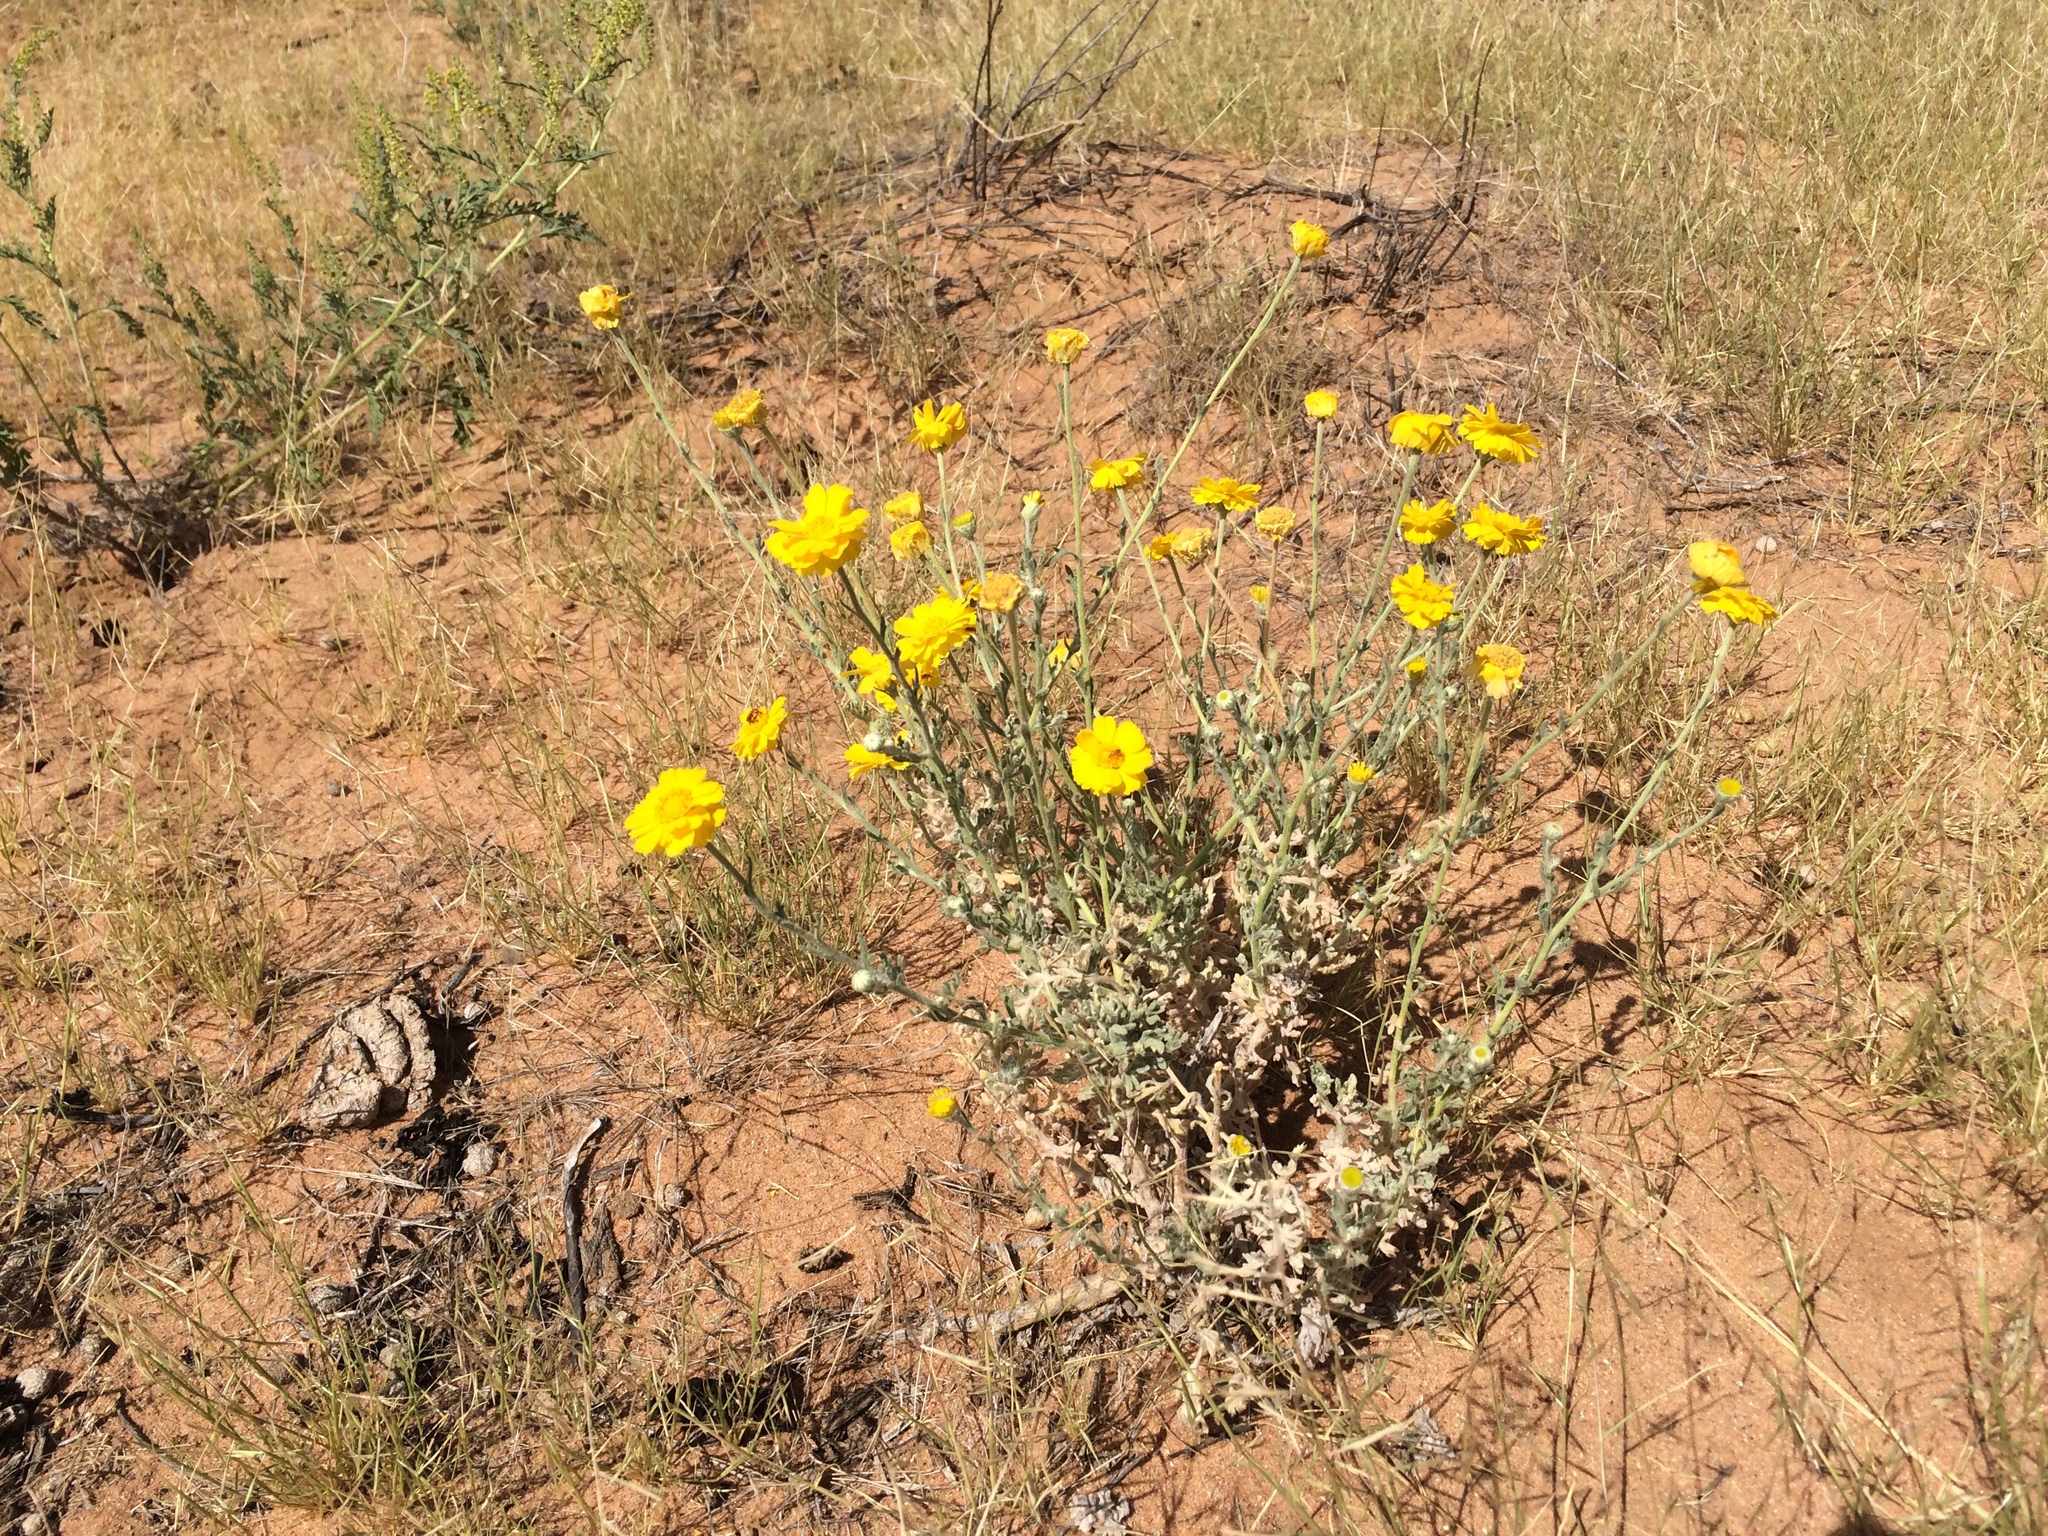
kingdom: Plantae
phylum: Tracheophyta
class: Magnoliopsida
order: Asterales
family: Asteraceae
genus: Baileya
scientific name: Baileya multiradiata
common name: Desert-marigold
